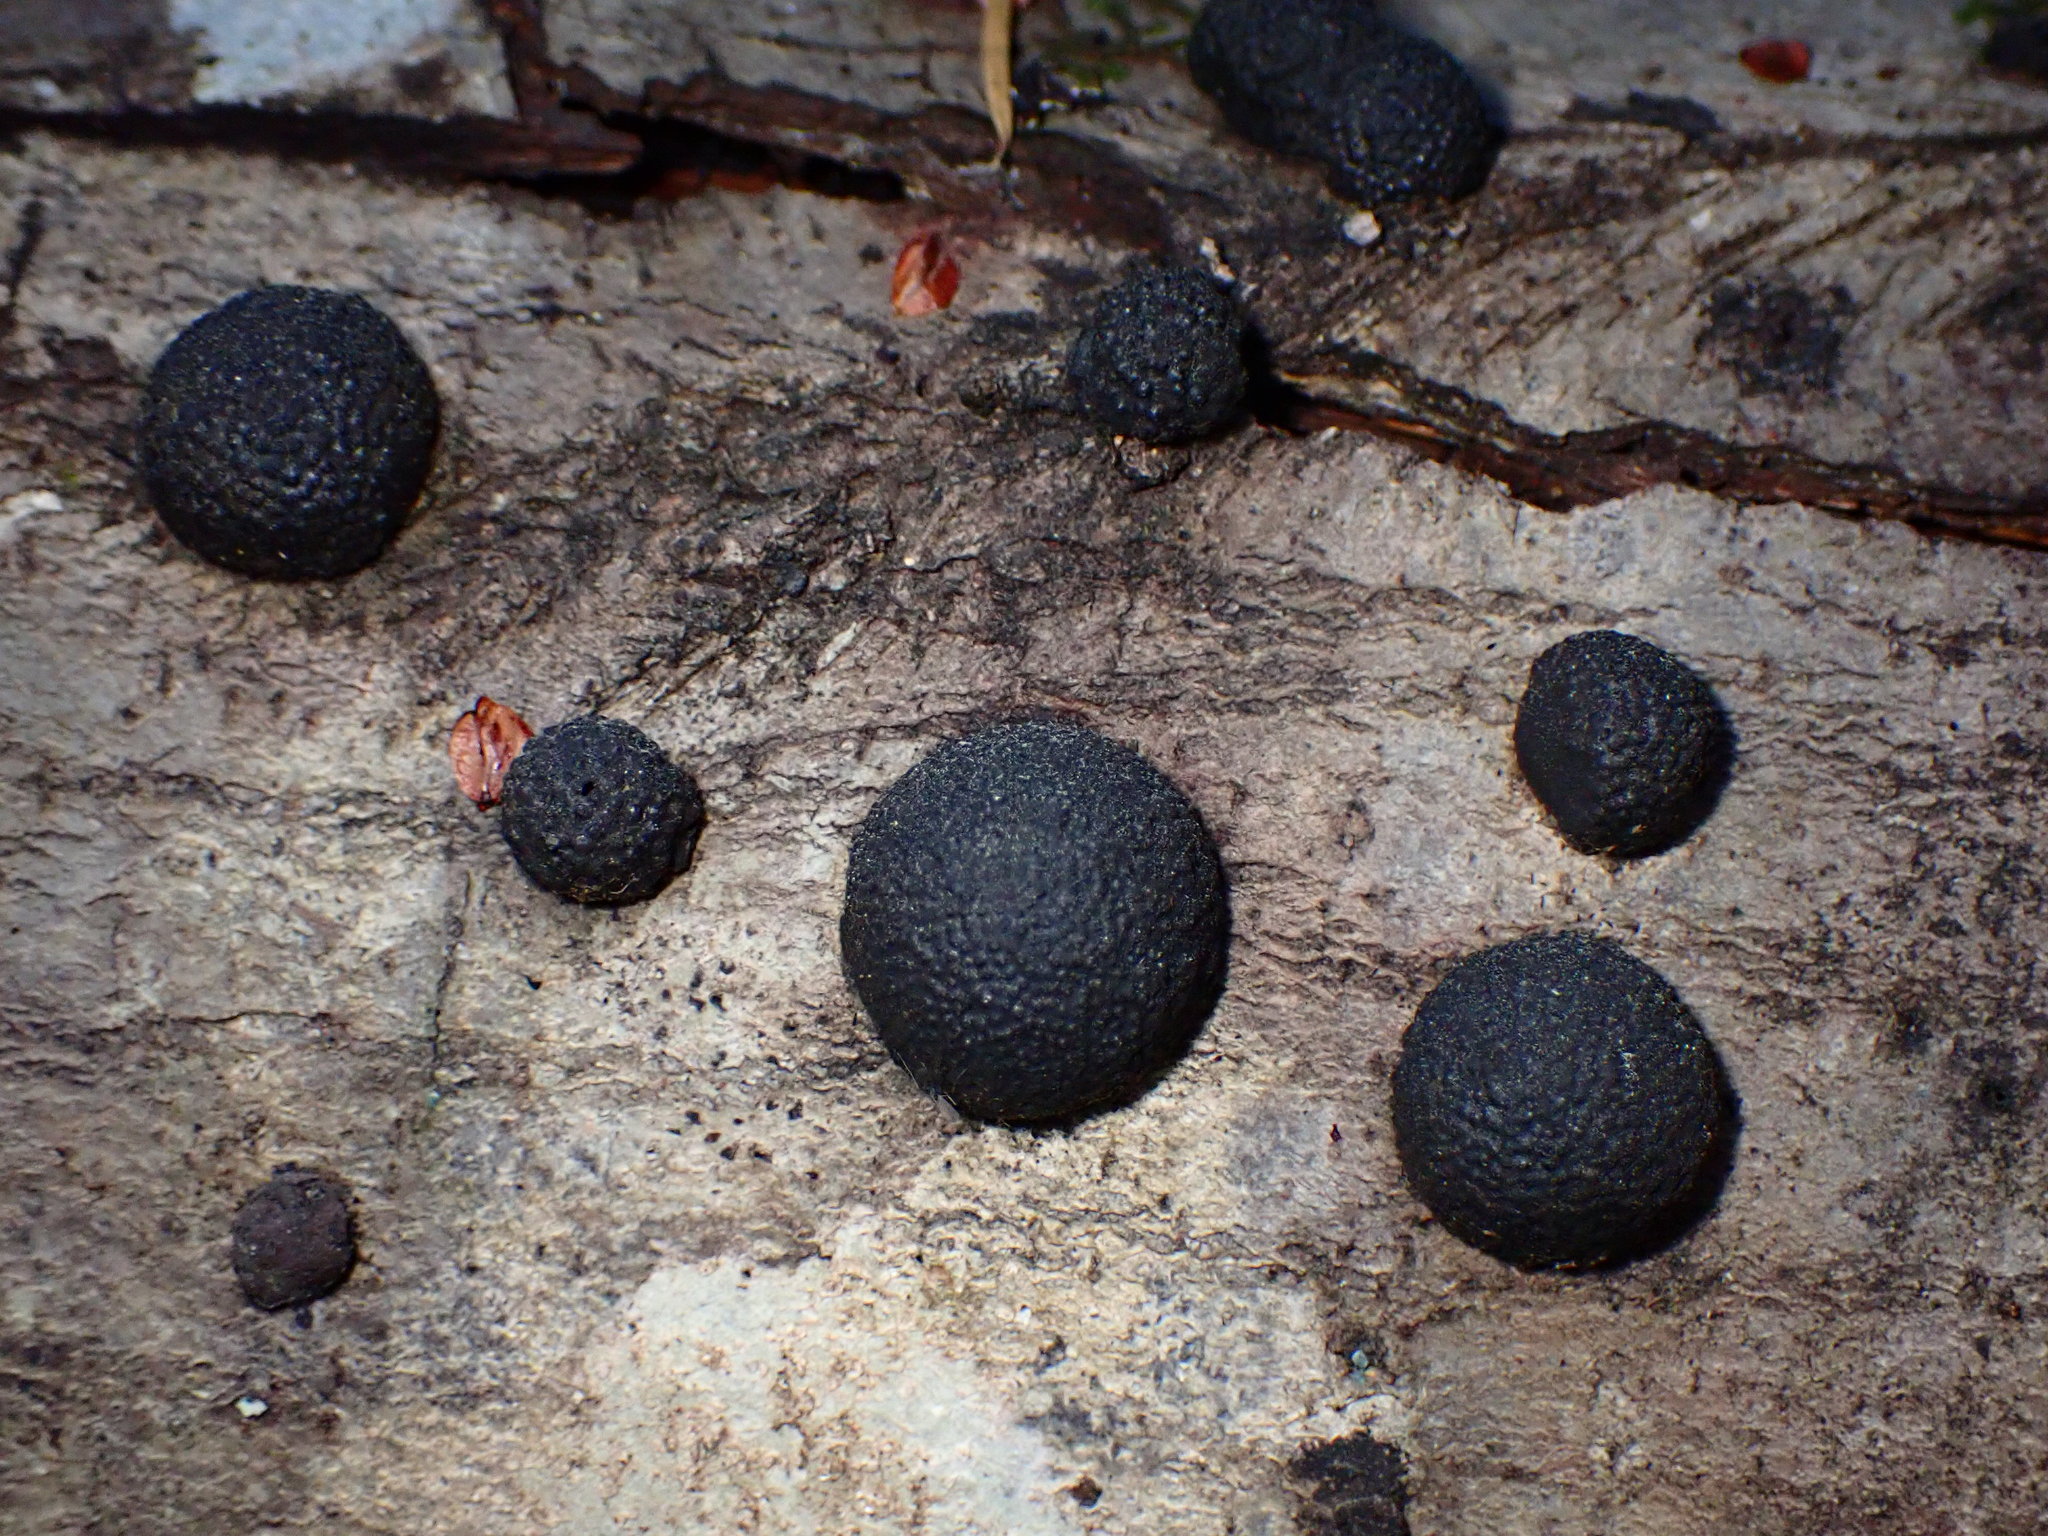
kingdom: Fungi
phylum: Ascomycota
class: Sordariomycetes
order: Xylariales
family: Hypoxylaceae
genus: Annulohypoxylon
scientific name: Annulohypoxylon thouarsianum
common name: Cramp balls
